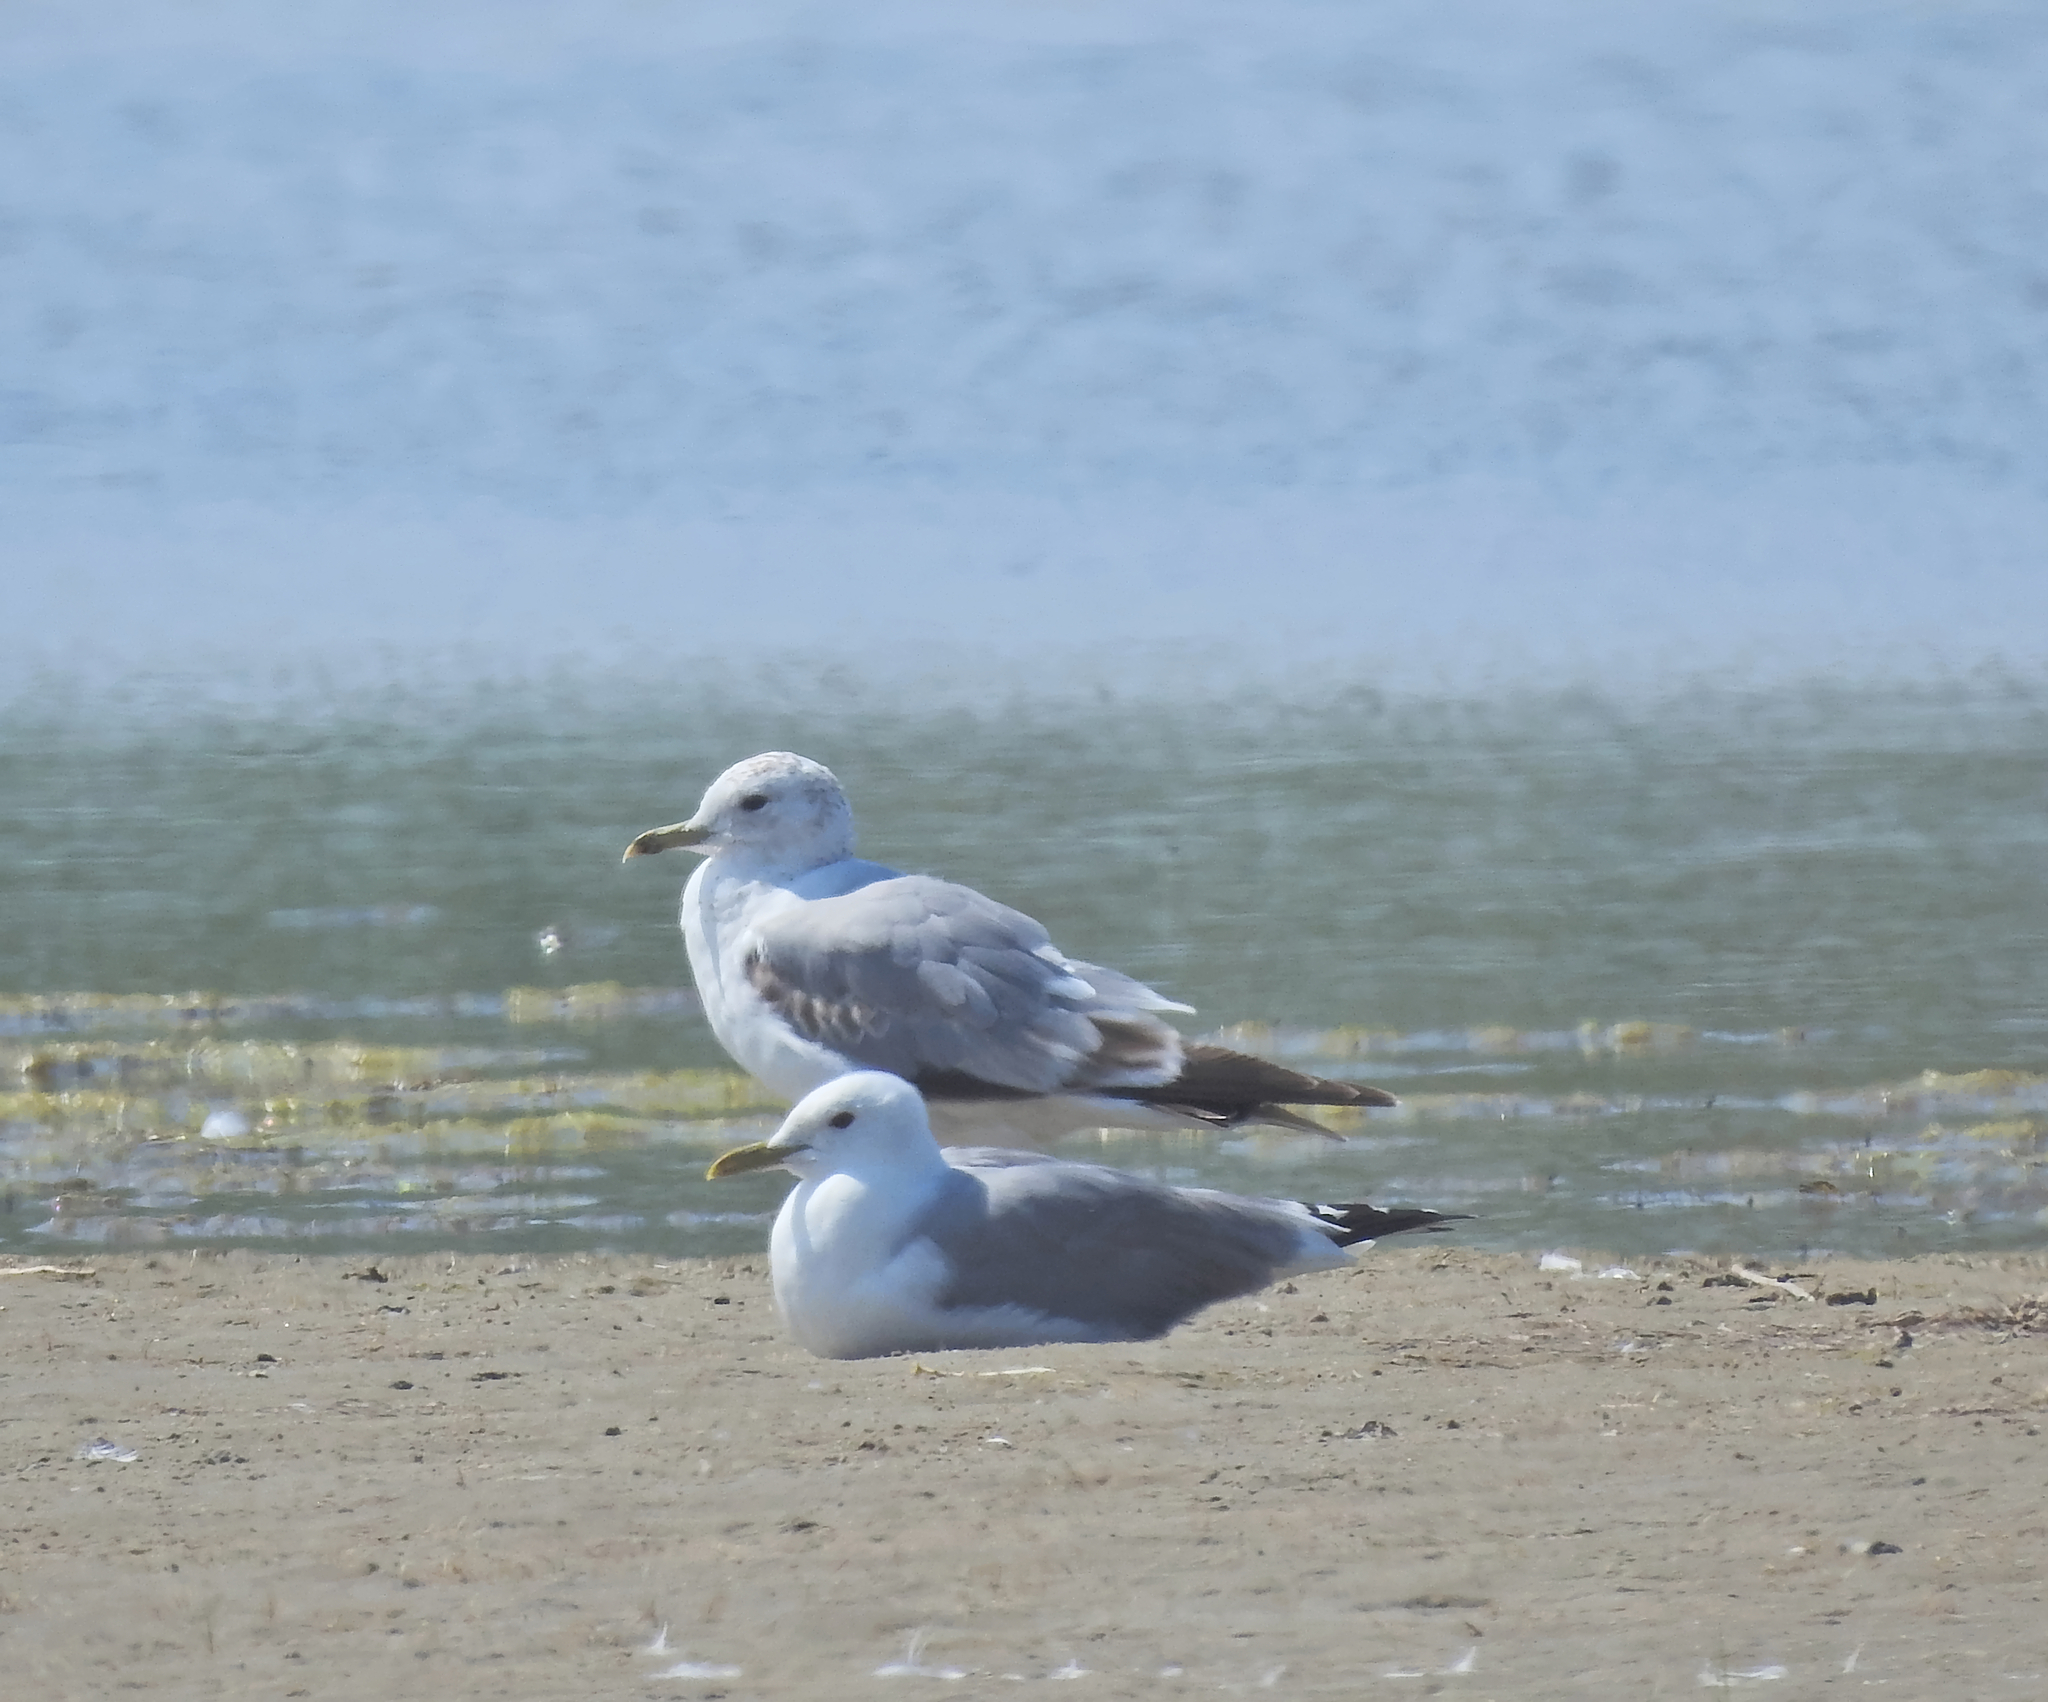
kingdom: Animalia
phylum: Chordata
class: Aves
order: Charadriiformes
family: Laridae
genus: Larus
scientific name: Larus canus
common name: Mew gull
